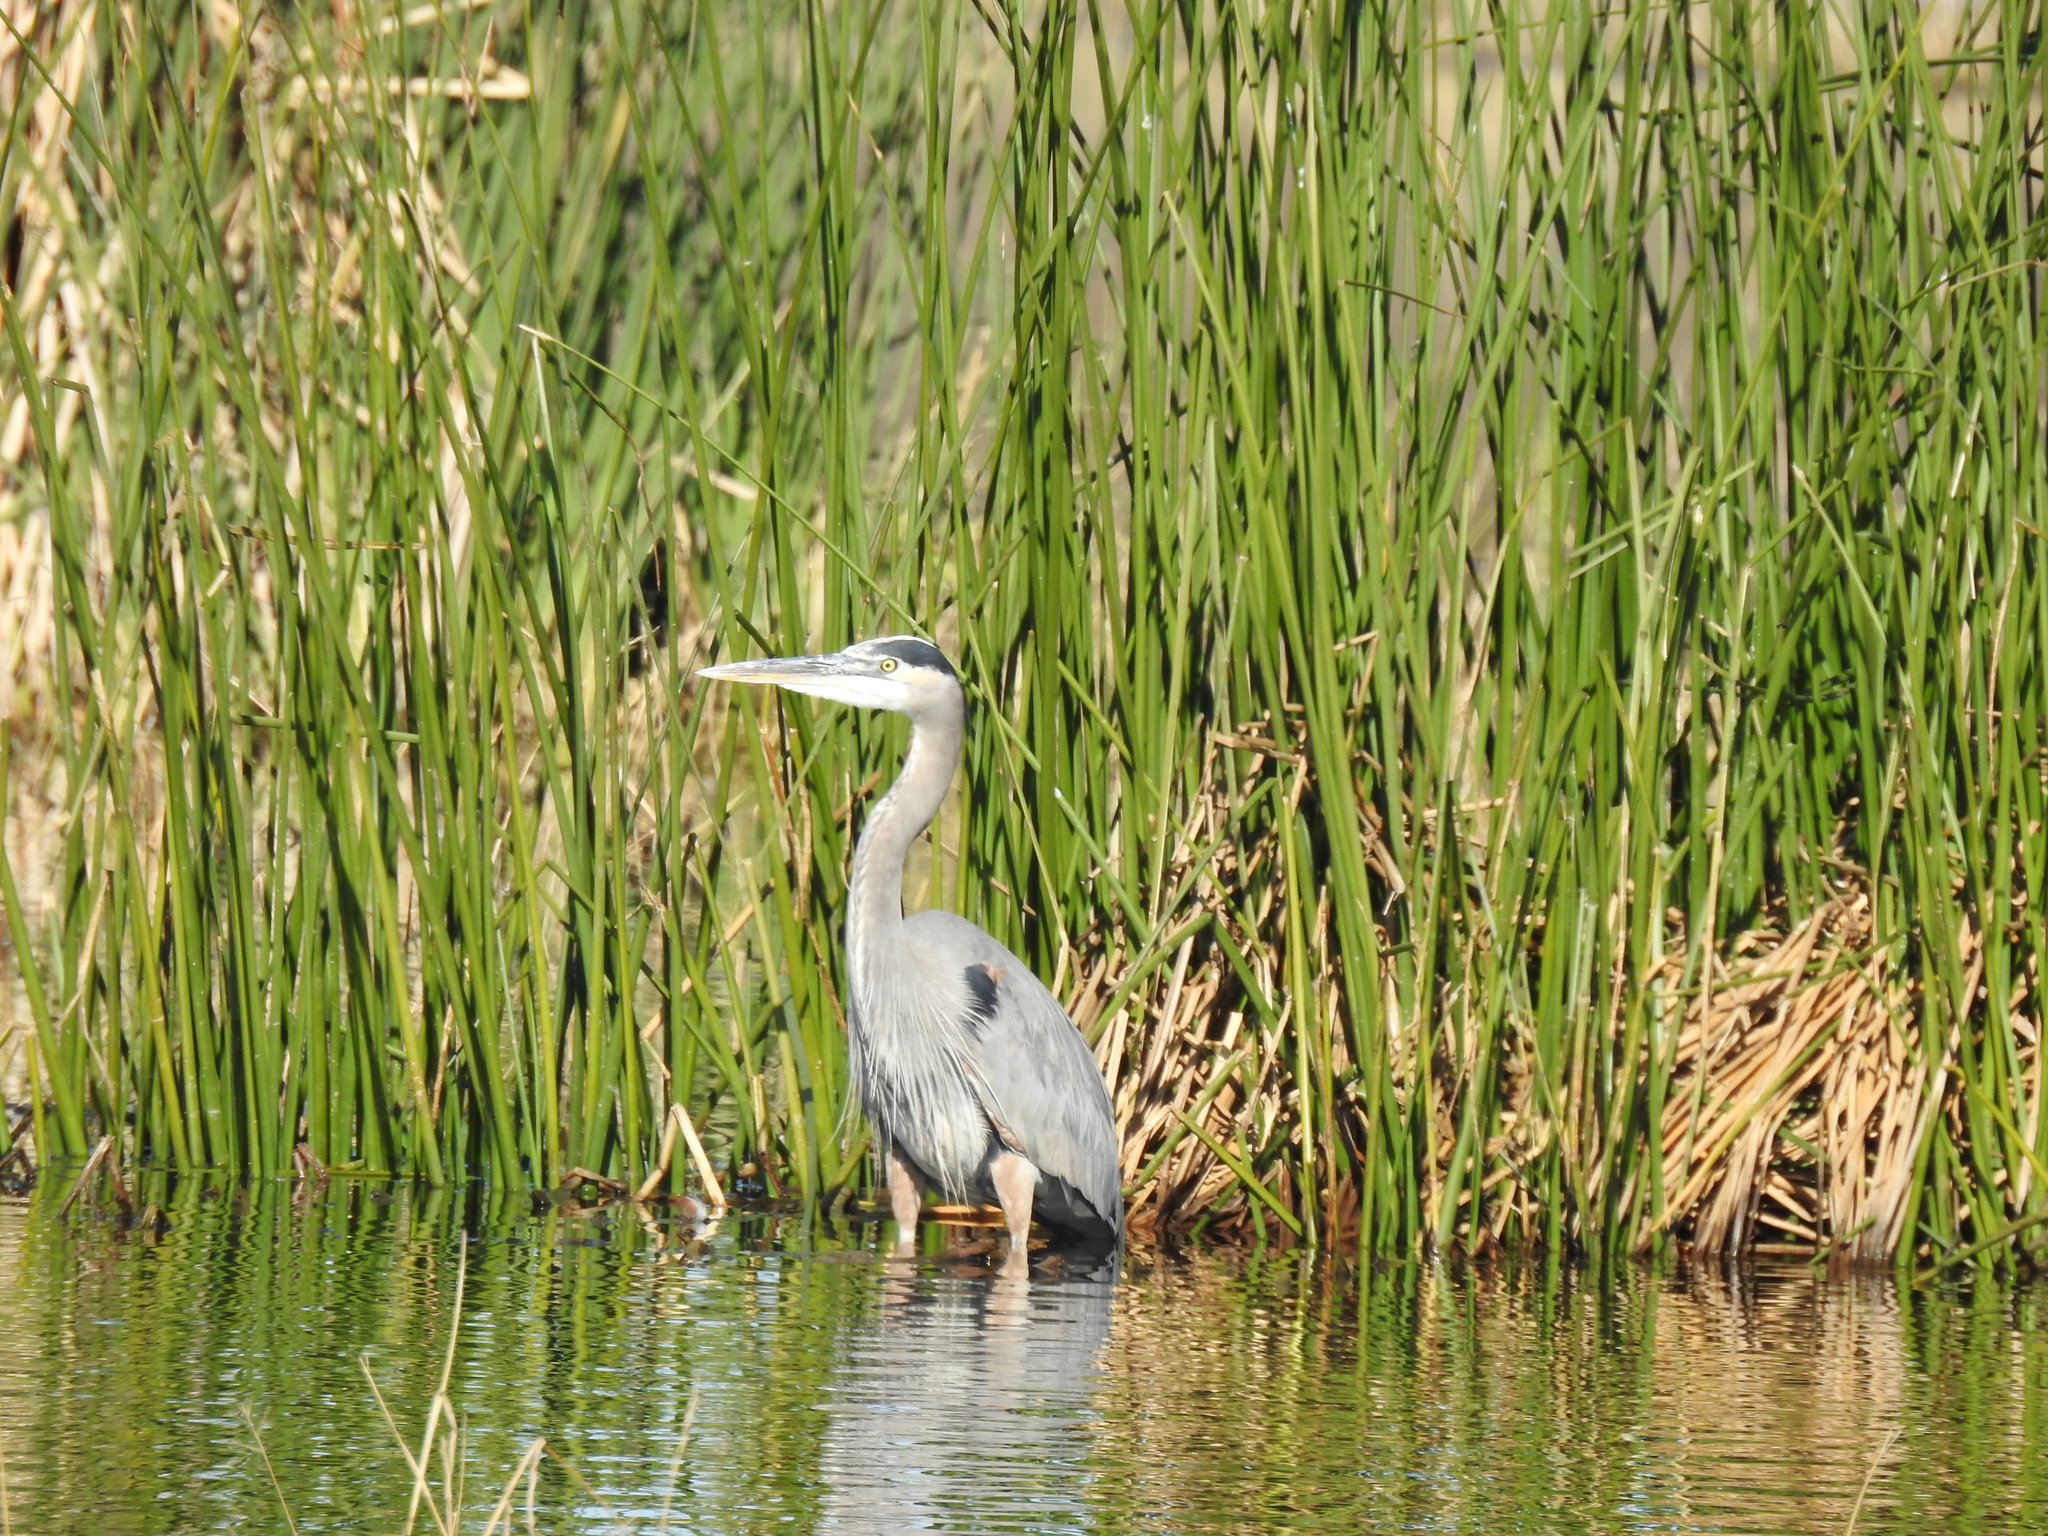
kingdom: Animalia
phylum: Chordata
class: Aves
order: Pelecaniformes
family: Ardeidae
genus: Ardea
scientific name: Ardea herodias
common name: Great blue heron
